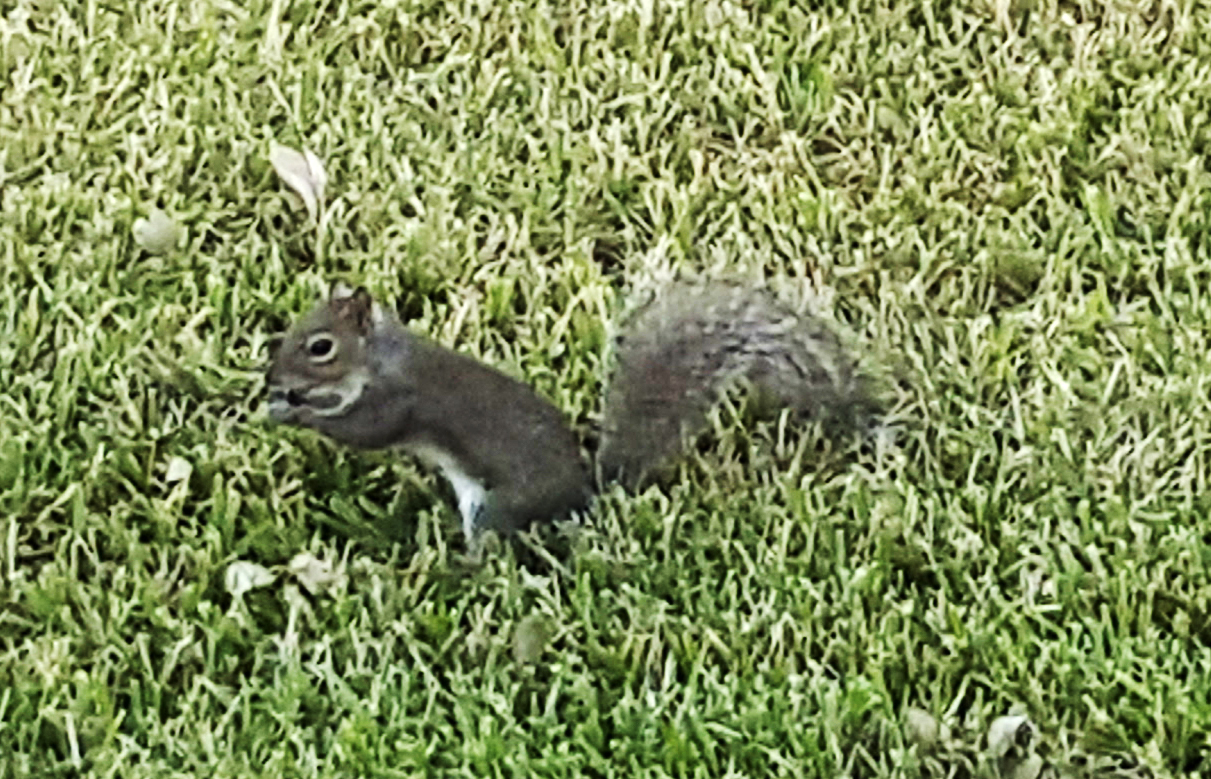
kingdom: Animalia
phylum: Chordata
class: Mammalia
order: Rodentia
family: Sciuridae
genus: Sciurus
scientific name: Sciurus carolinensis
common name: Eastern gray squirrel
